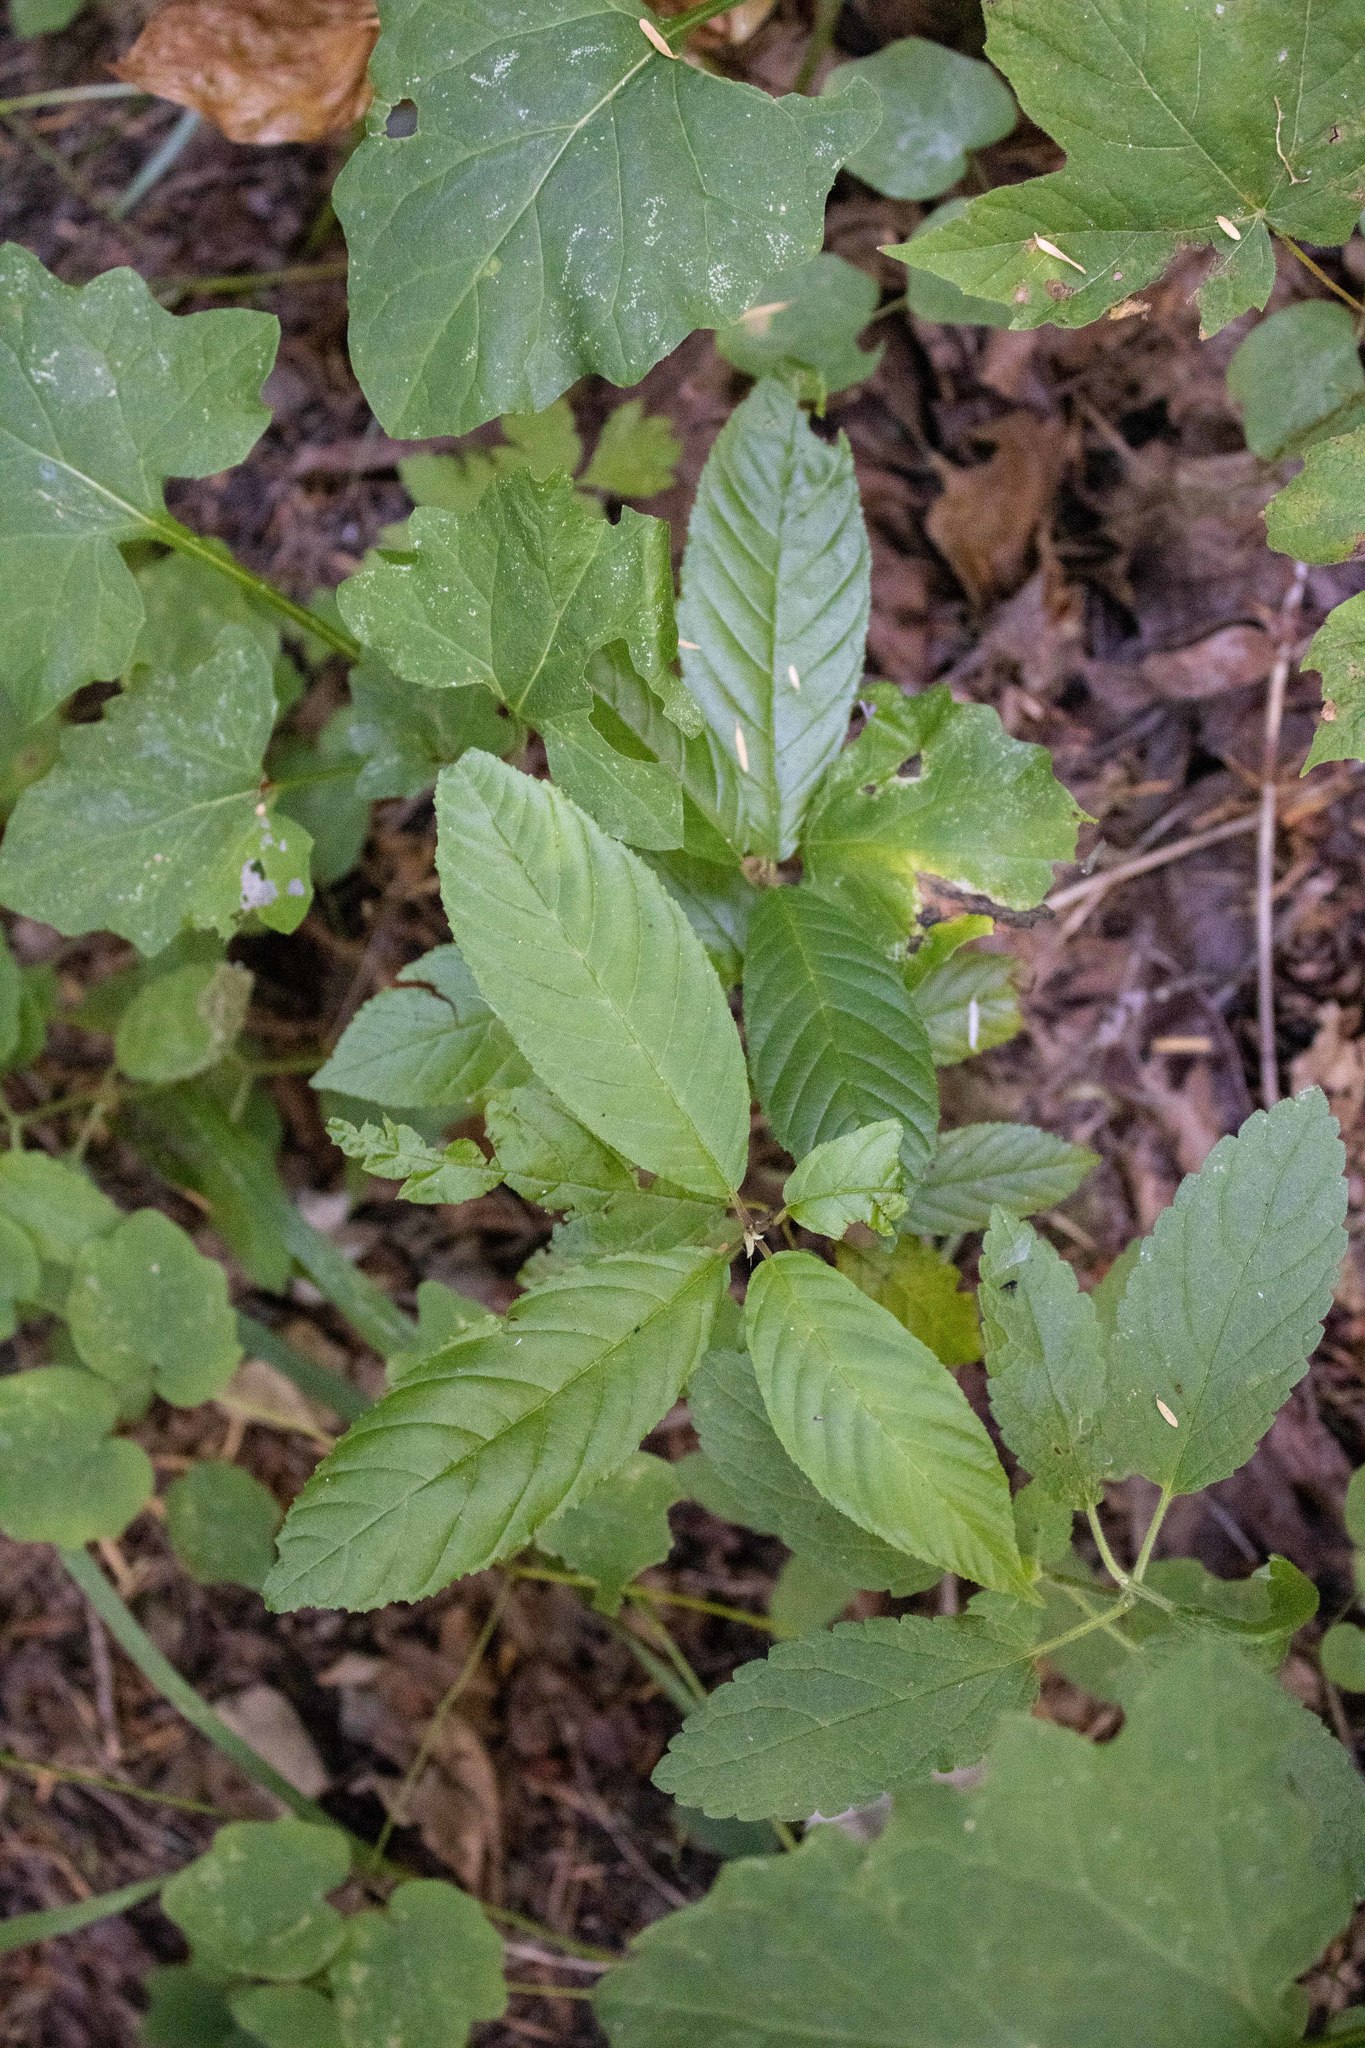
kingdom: Plantae
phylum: Tracheophyta
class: Magnoliopsida
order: Rosales
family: Rhamnaceae
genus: Frangula
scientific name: Frangula purshiana
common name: Cascara buckthorn
